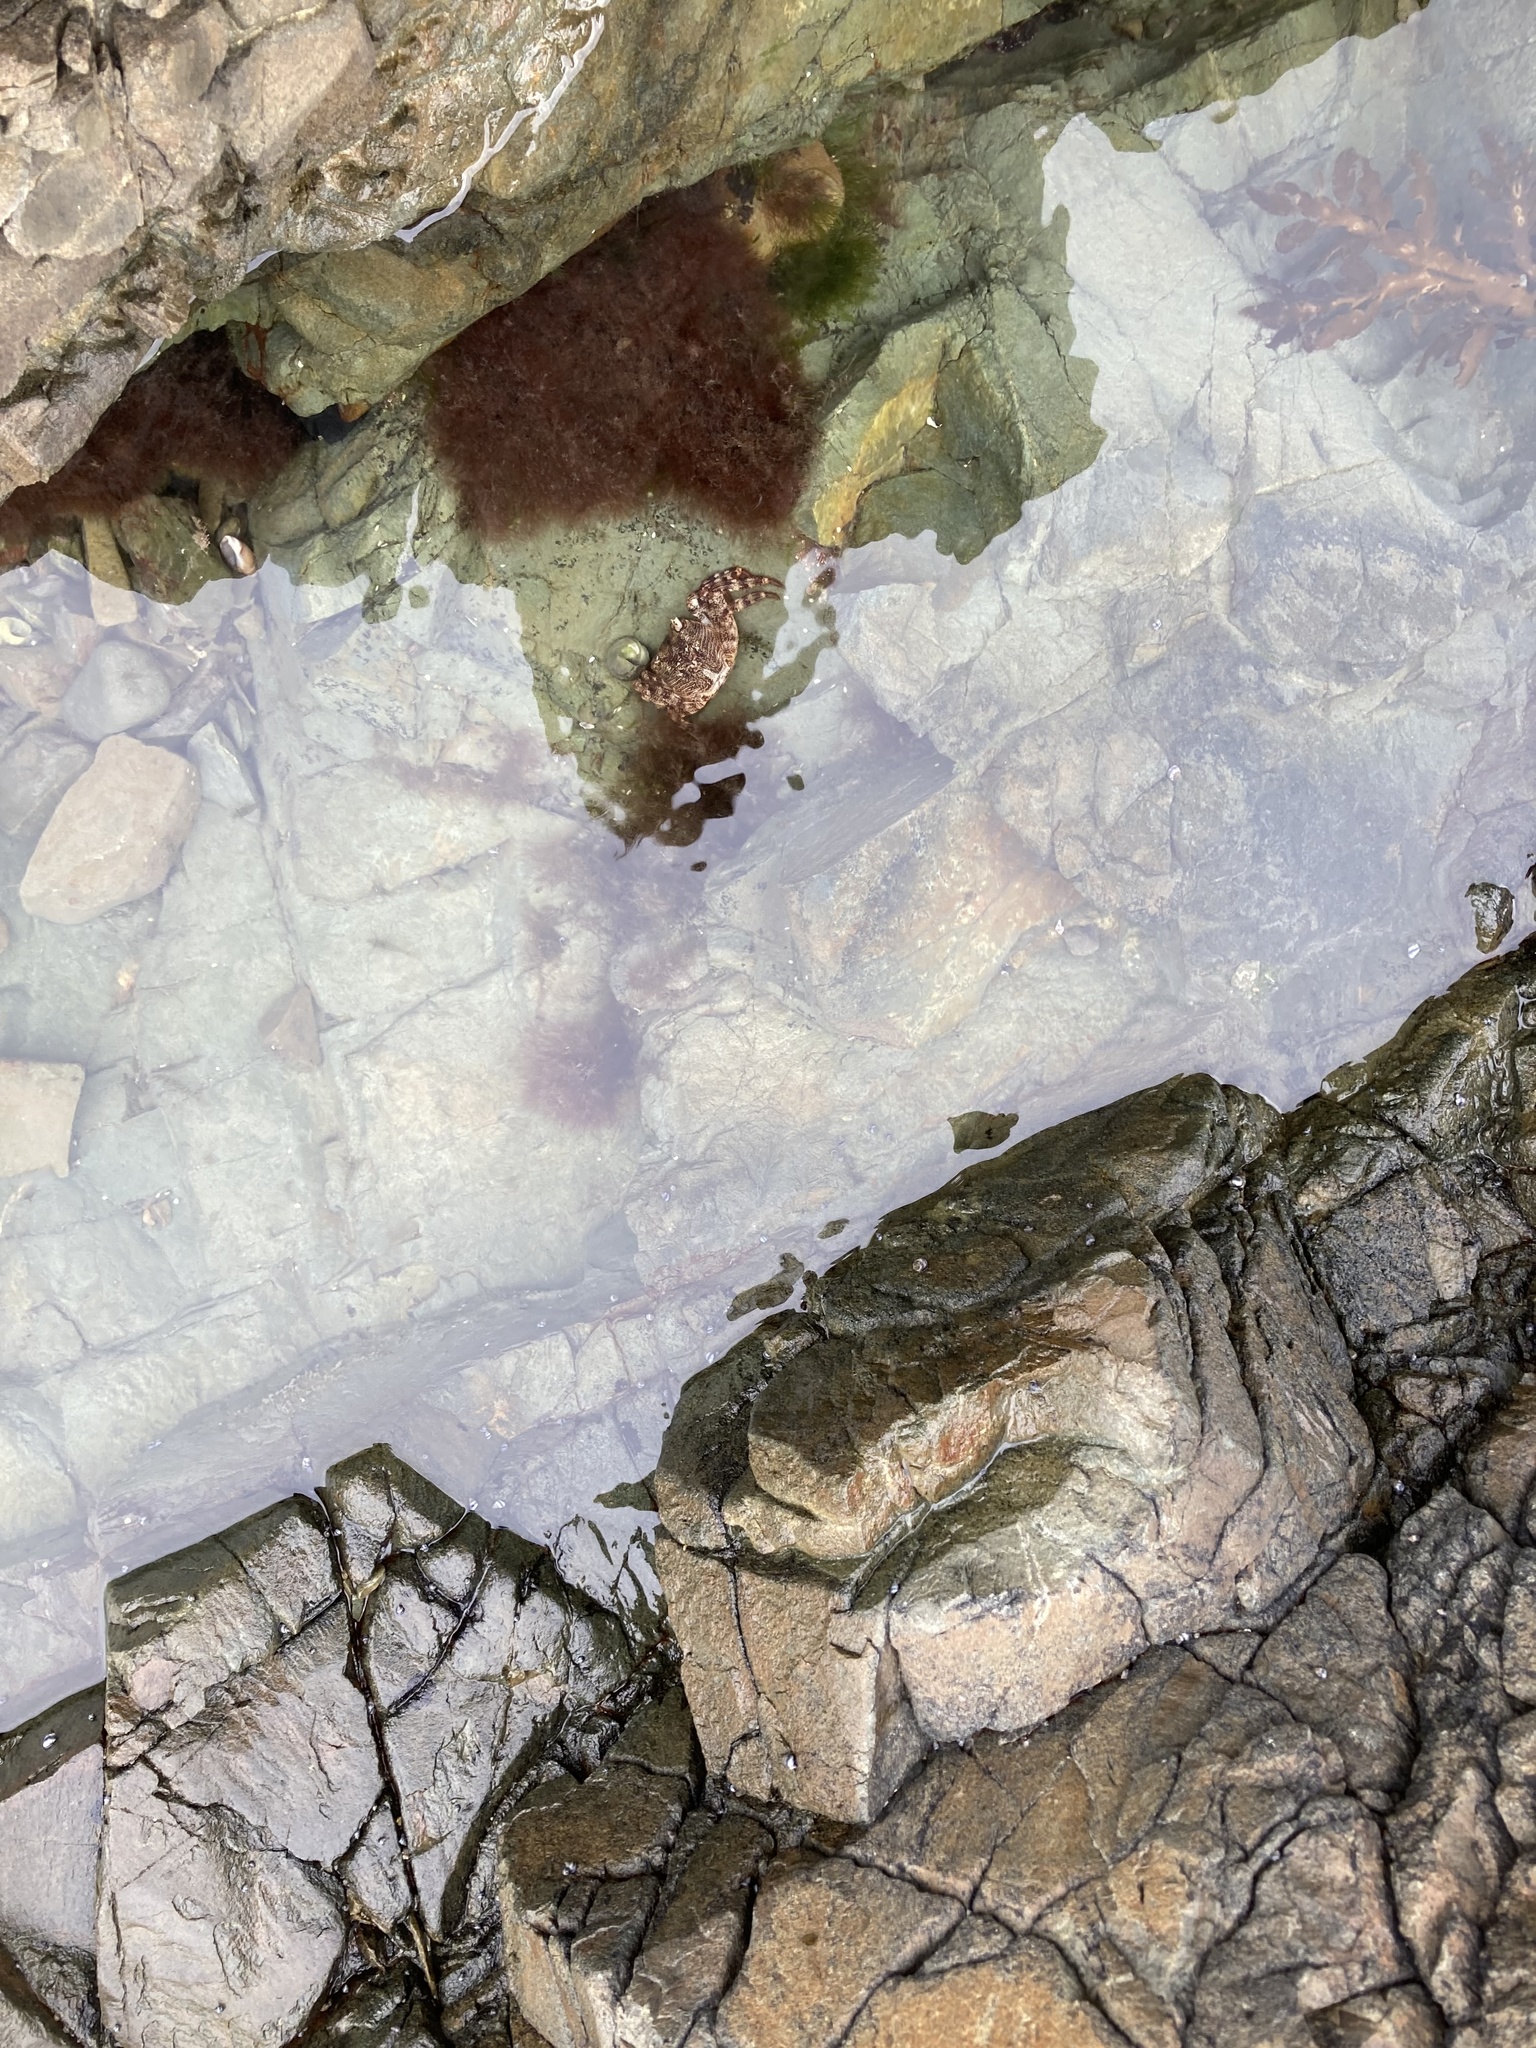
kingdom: Animalia
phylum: Arthropoda
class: Malacostraca
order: Decapoda
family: Grapsidae
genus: Leptograpsus
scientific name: Leptograpsus variegatus
